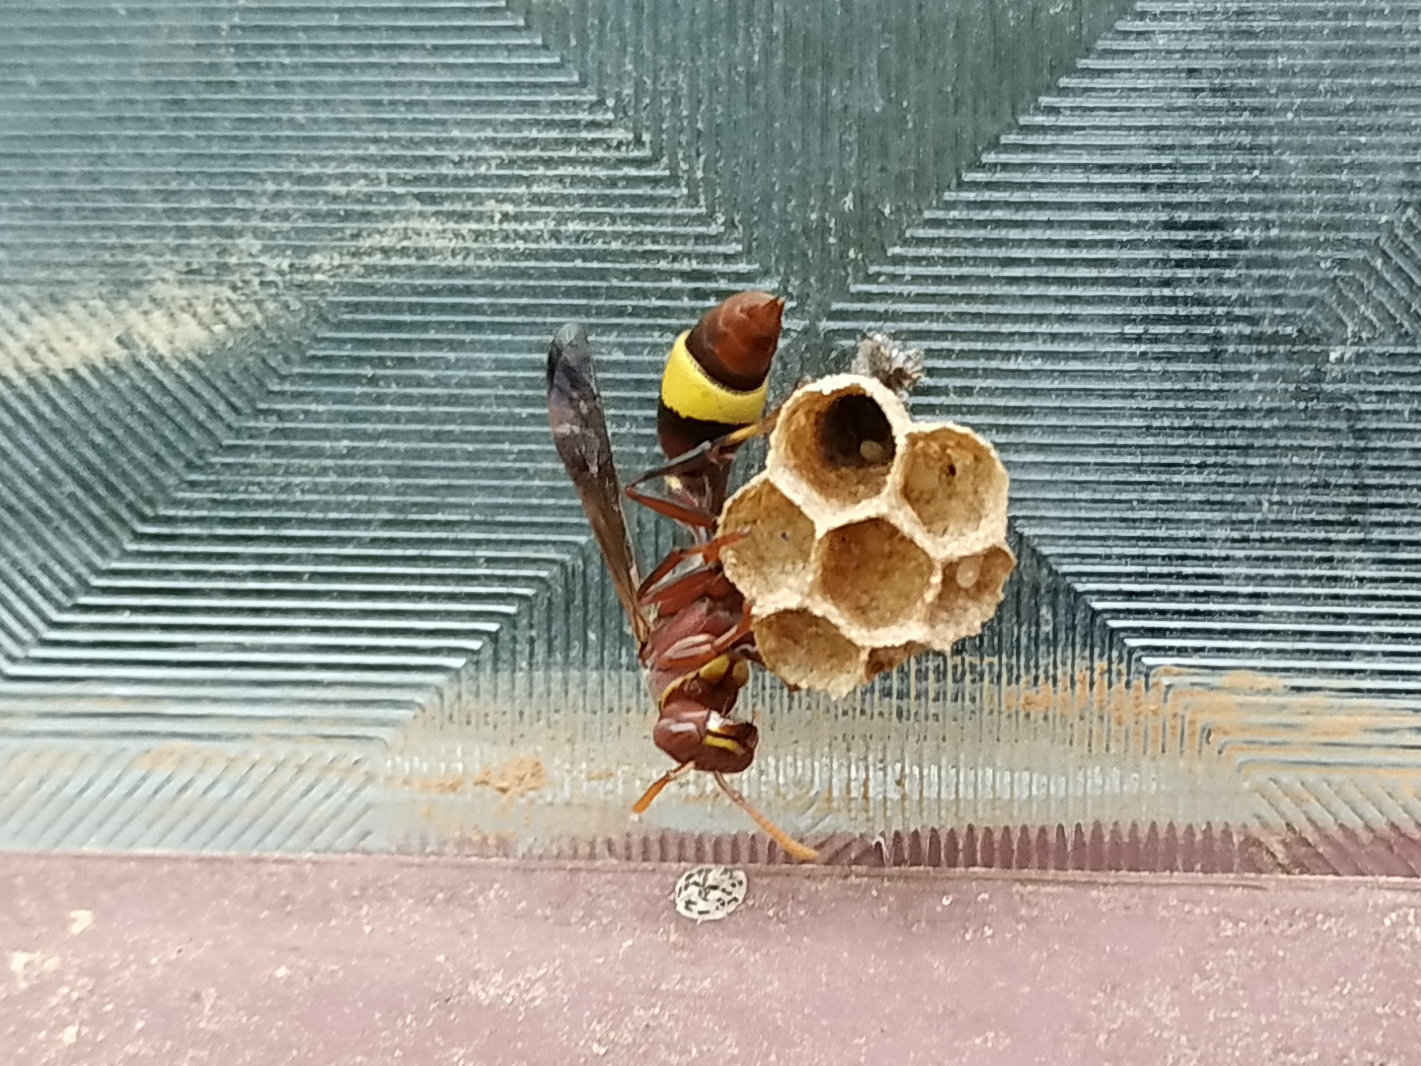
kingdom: Animalia
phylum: Arthropoda
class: Insecta
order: Hymenoptera
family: Vespidae
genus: Ropalidia
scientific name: Ropalidia
